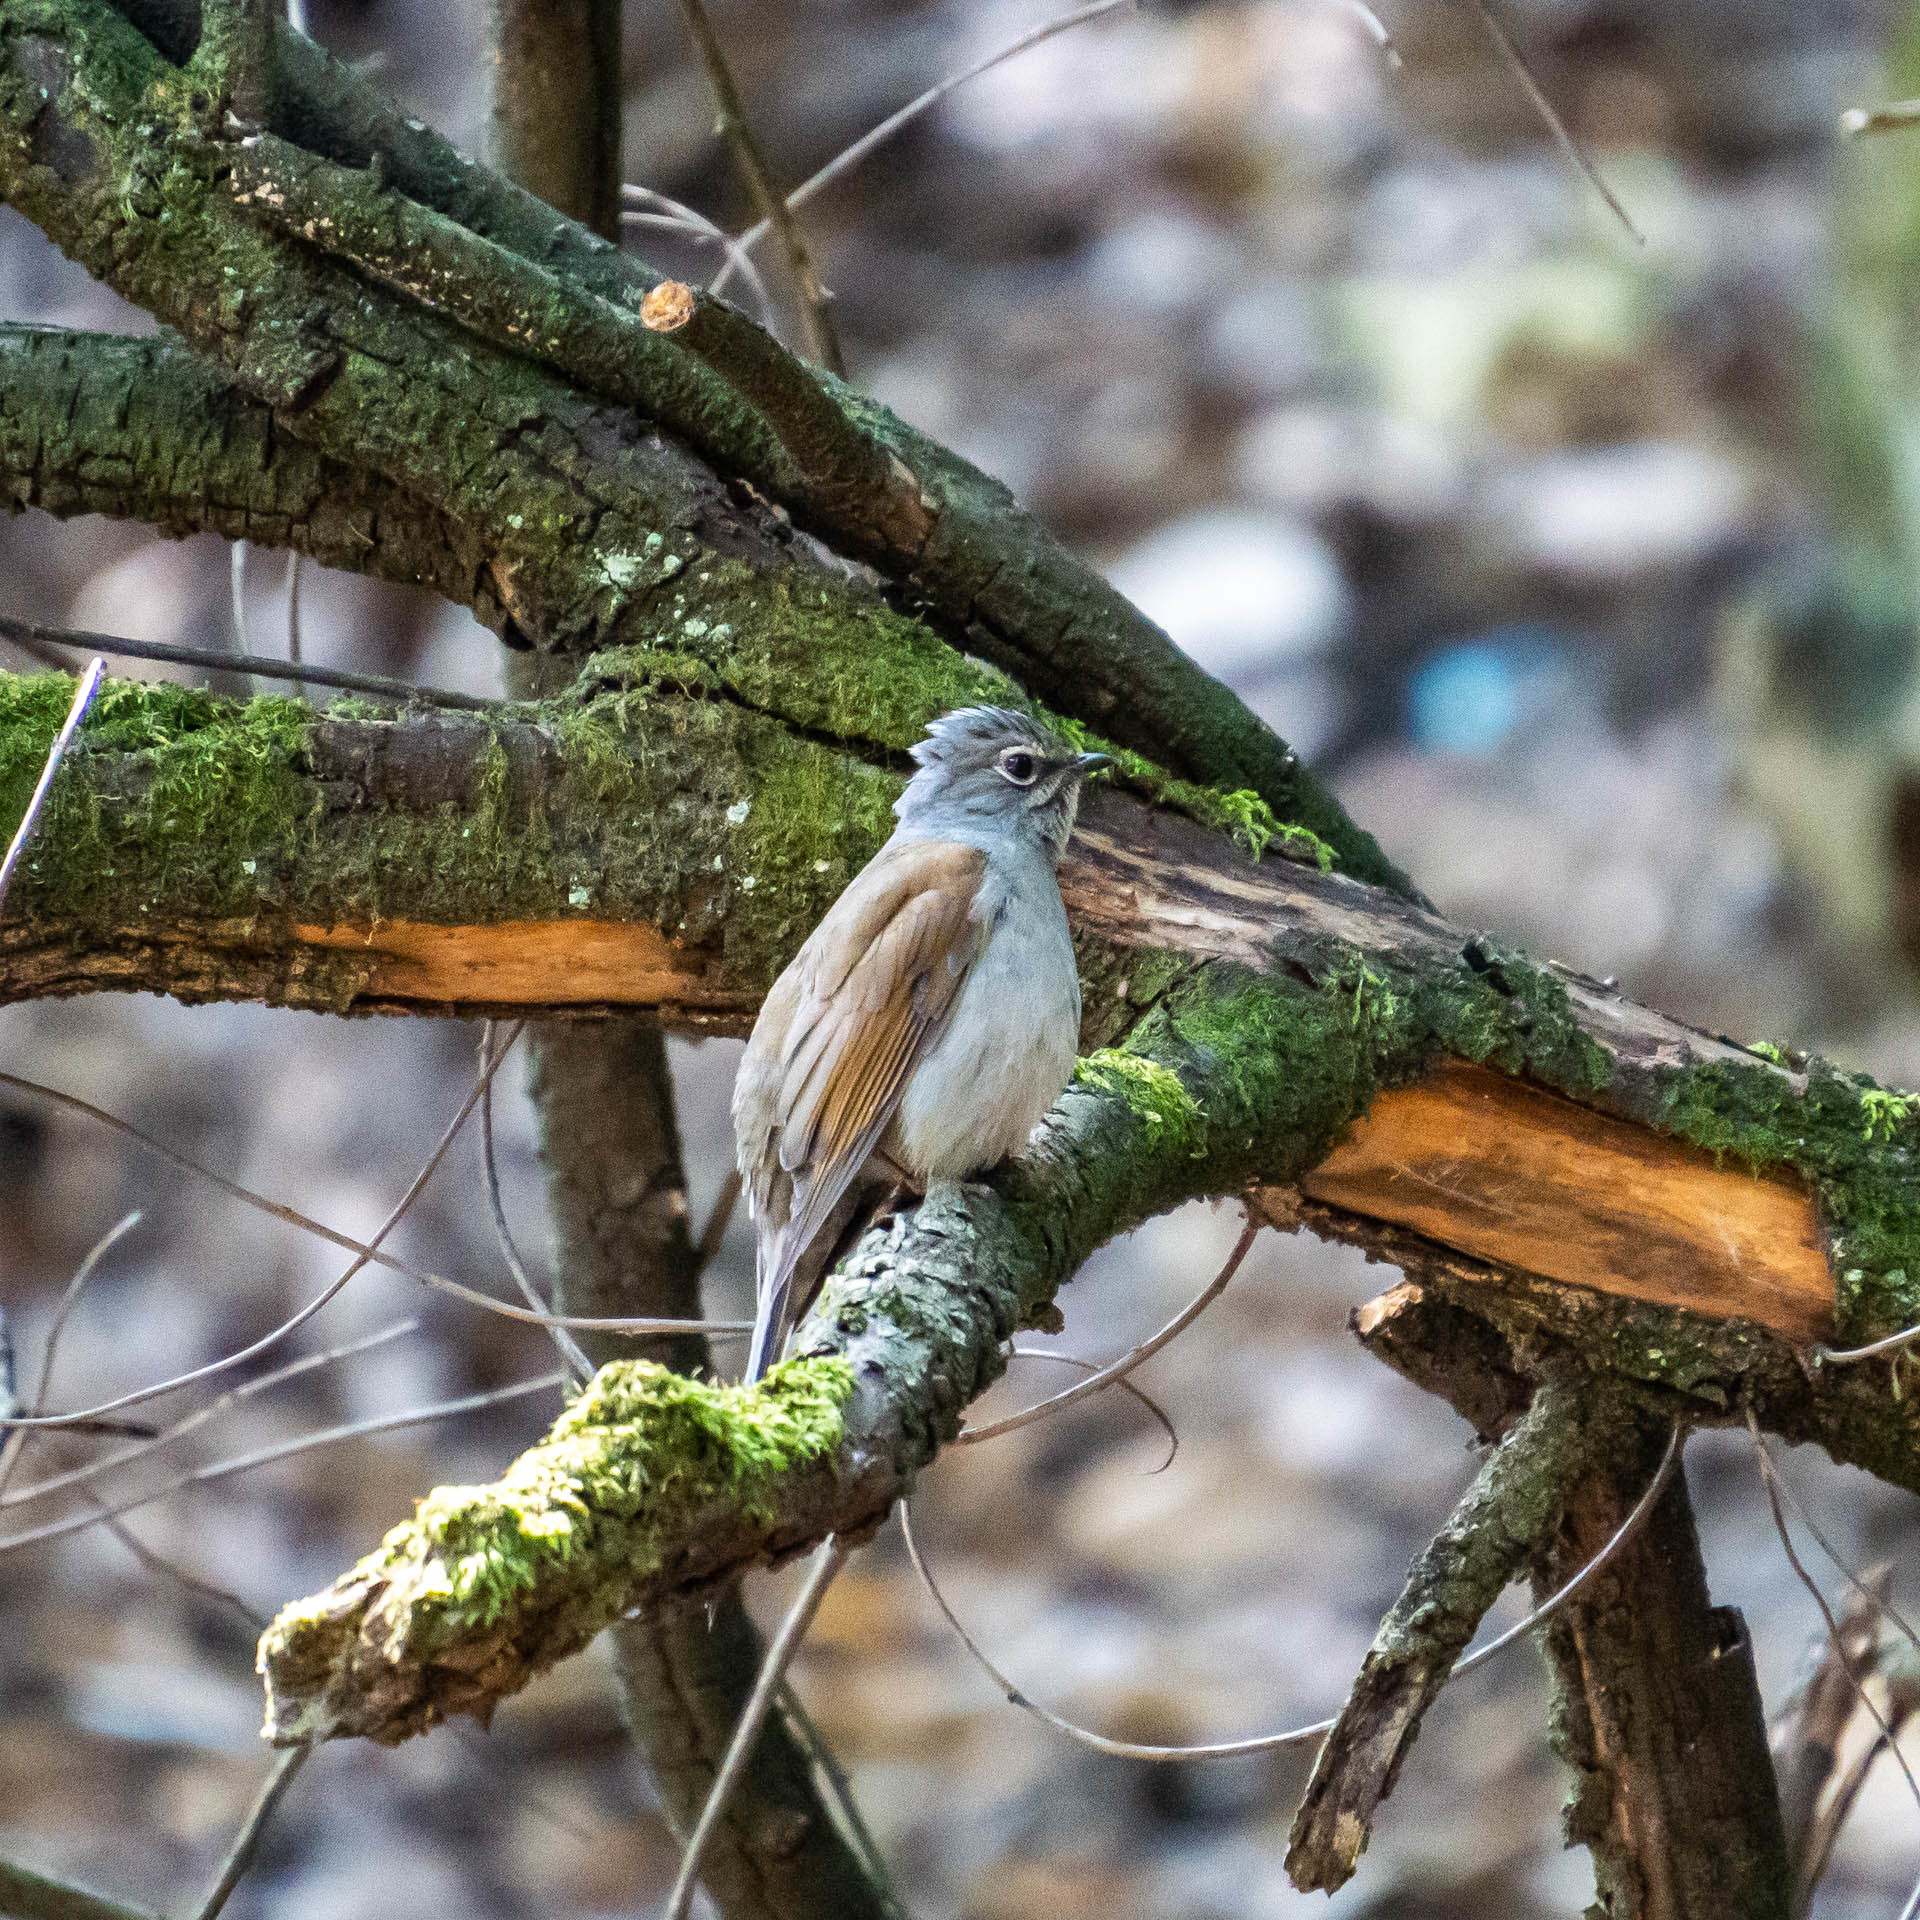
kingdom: Animalia
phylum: Chordata
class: Aves
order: Passeriformes
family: Turdidae
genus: Myadestes
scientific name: Myadestes occidentalis
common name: Brown-backed solitaire
